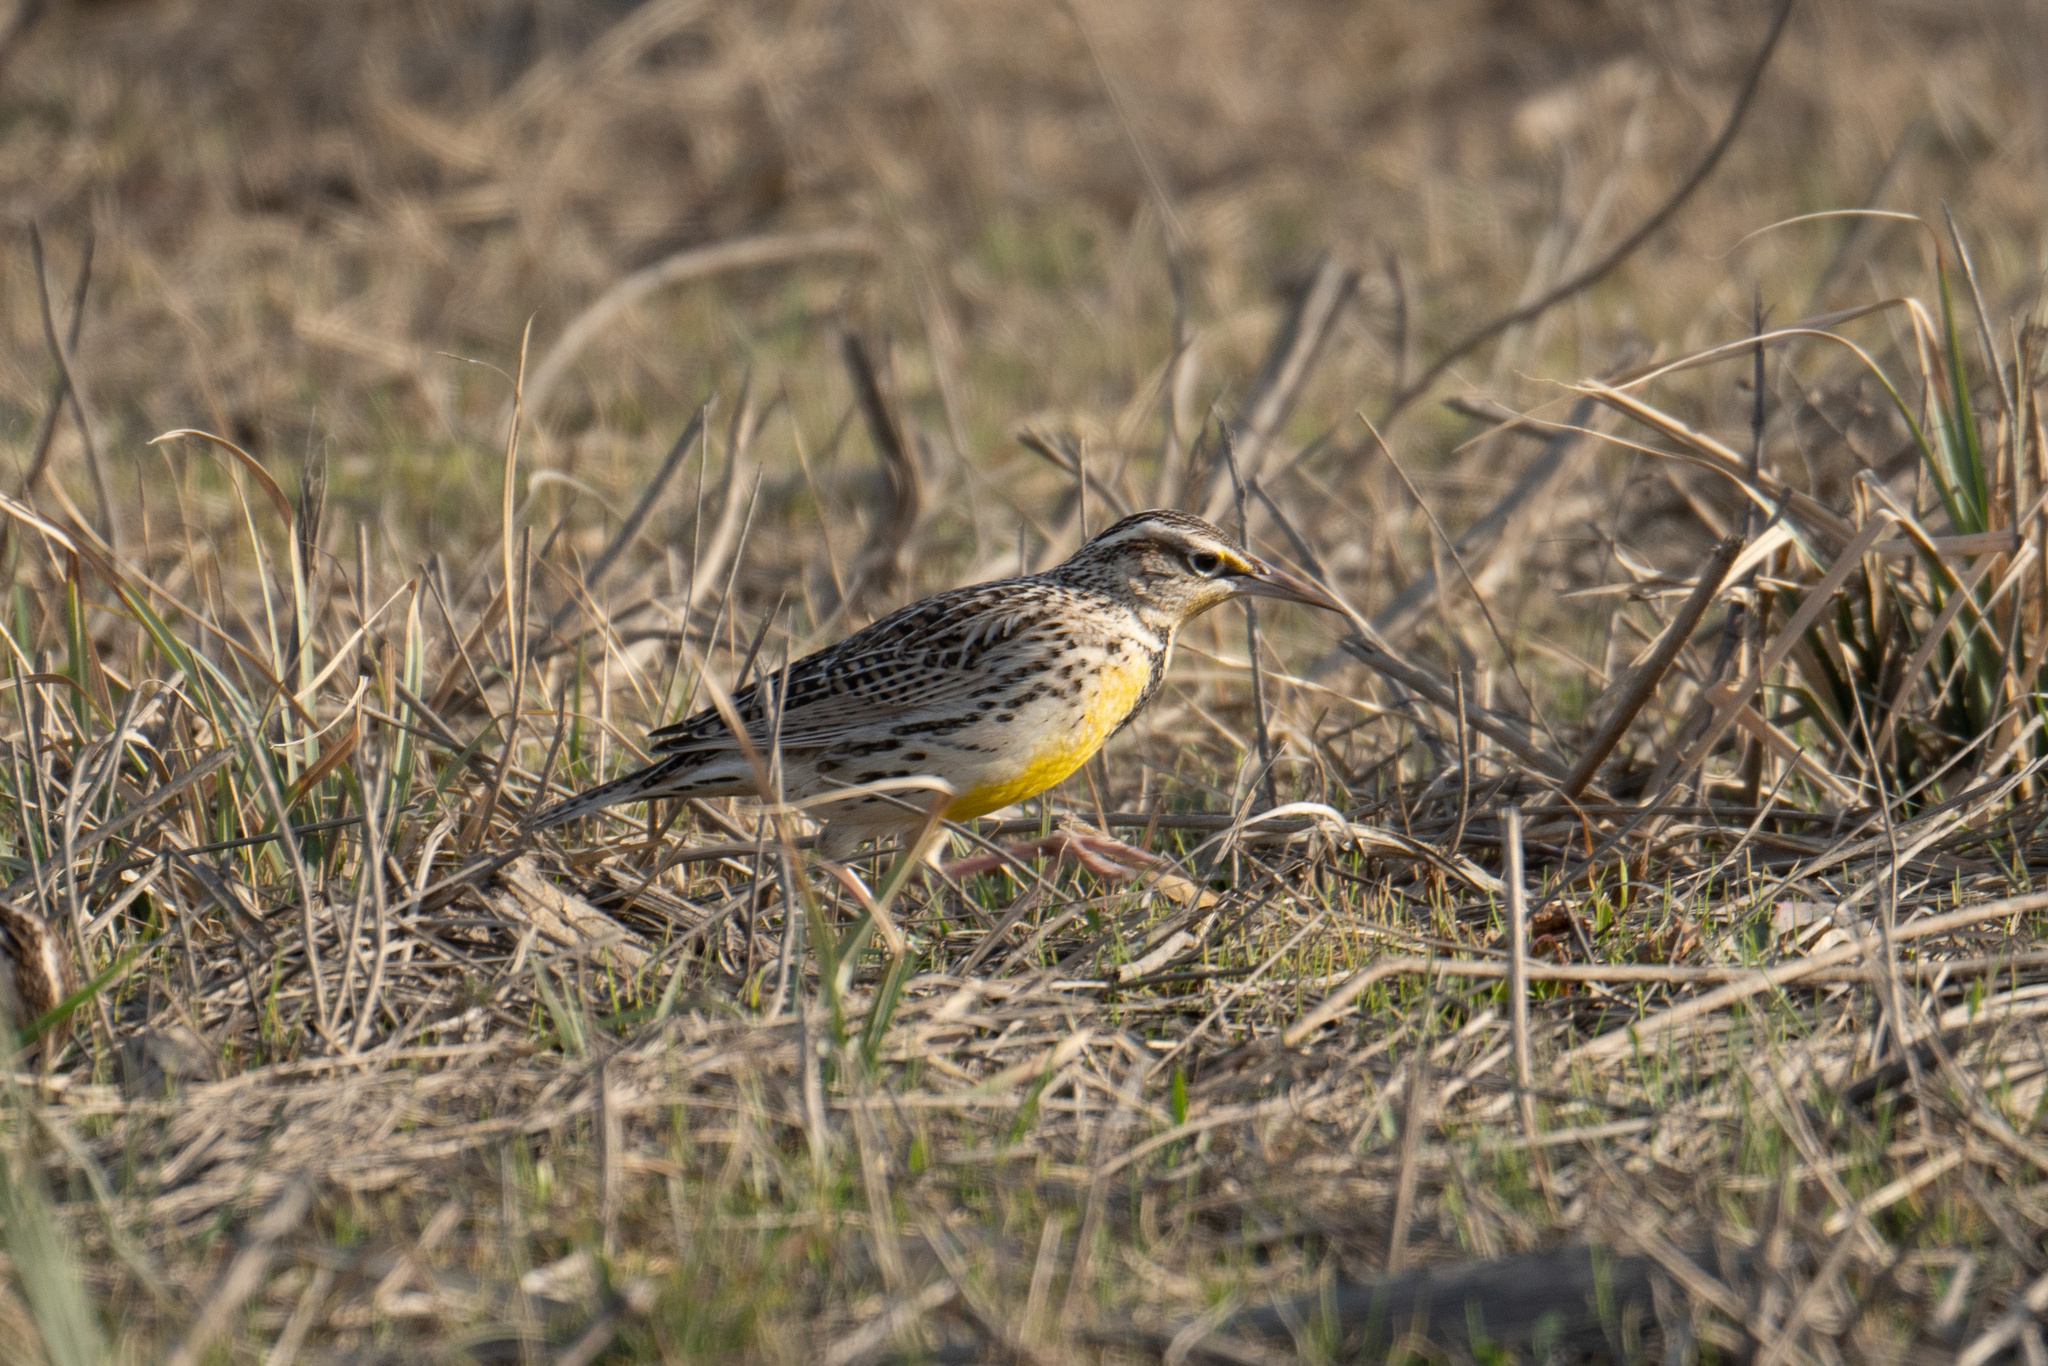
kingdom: Animalia
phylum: Chordata
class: Aves
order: Passeriformes
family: Icteridae
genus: Sturnella
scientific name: Sturnella neglecta
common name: Western meadowlark
